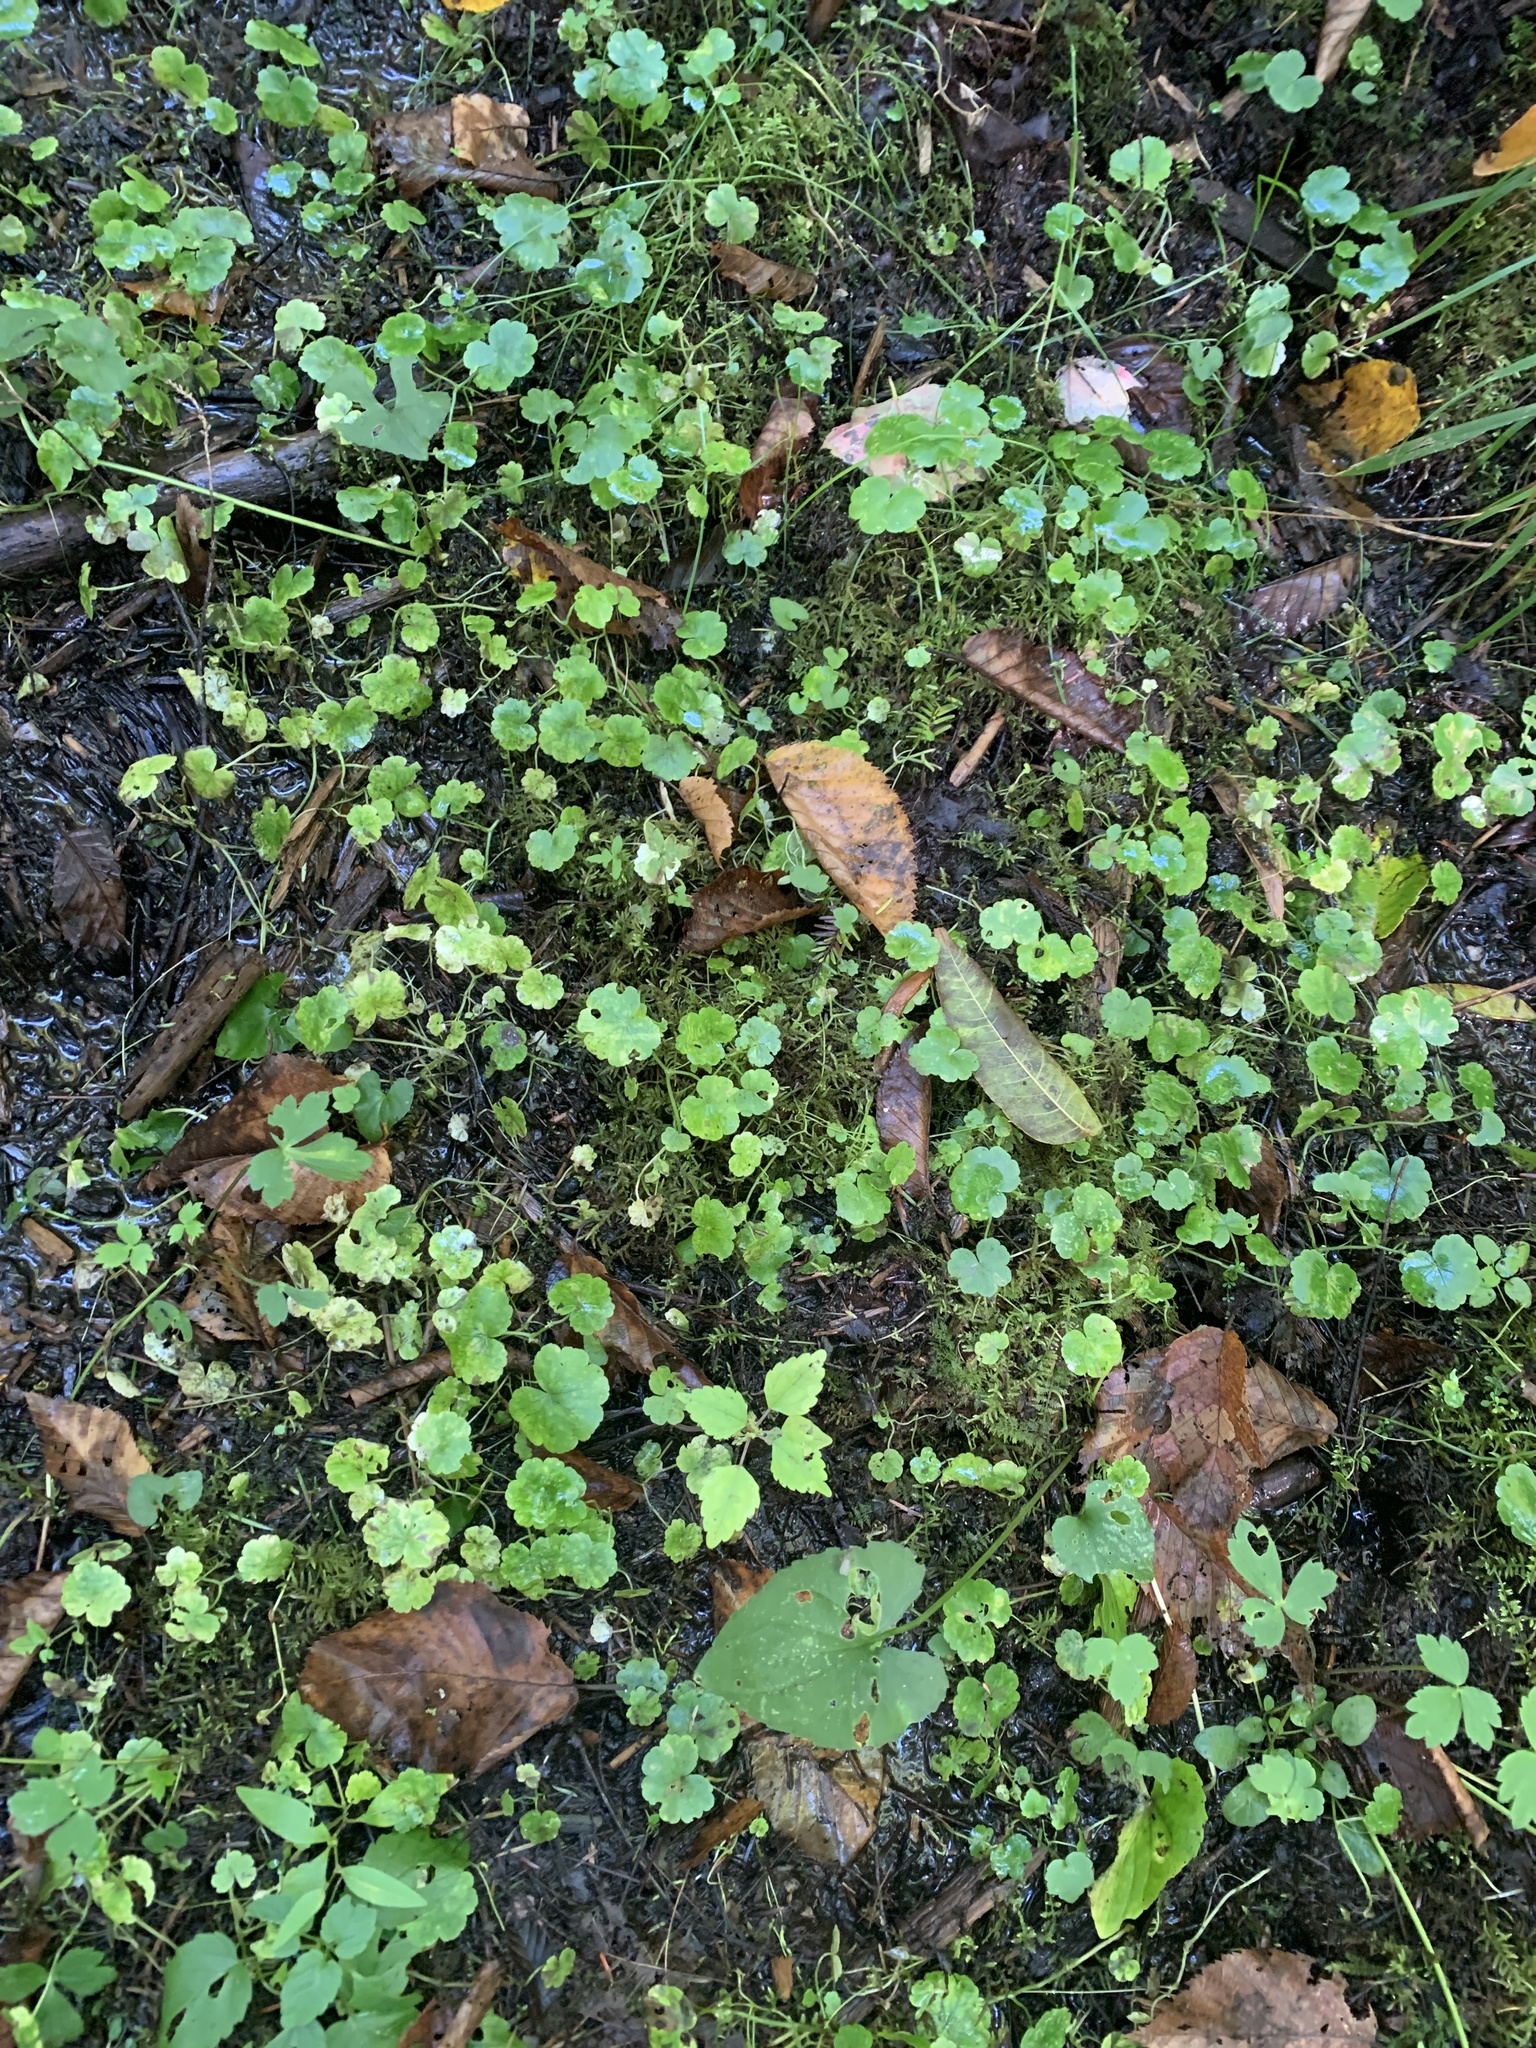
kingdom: Plantae
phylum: Tracheophyta
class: Magnoliopsida
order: Apiales
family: Araliaceae
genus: Hydrocotyle
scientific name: Hydrocotyle americana
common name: American water-pennywort
